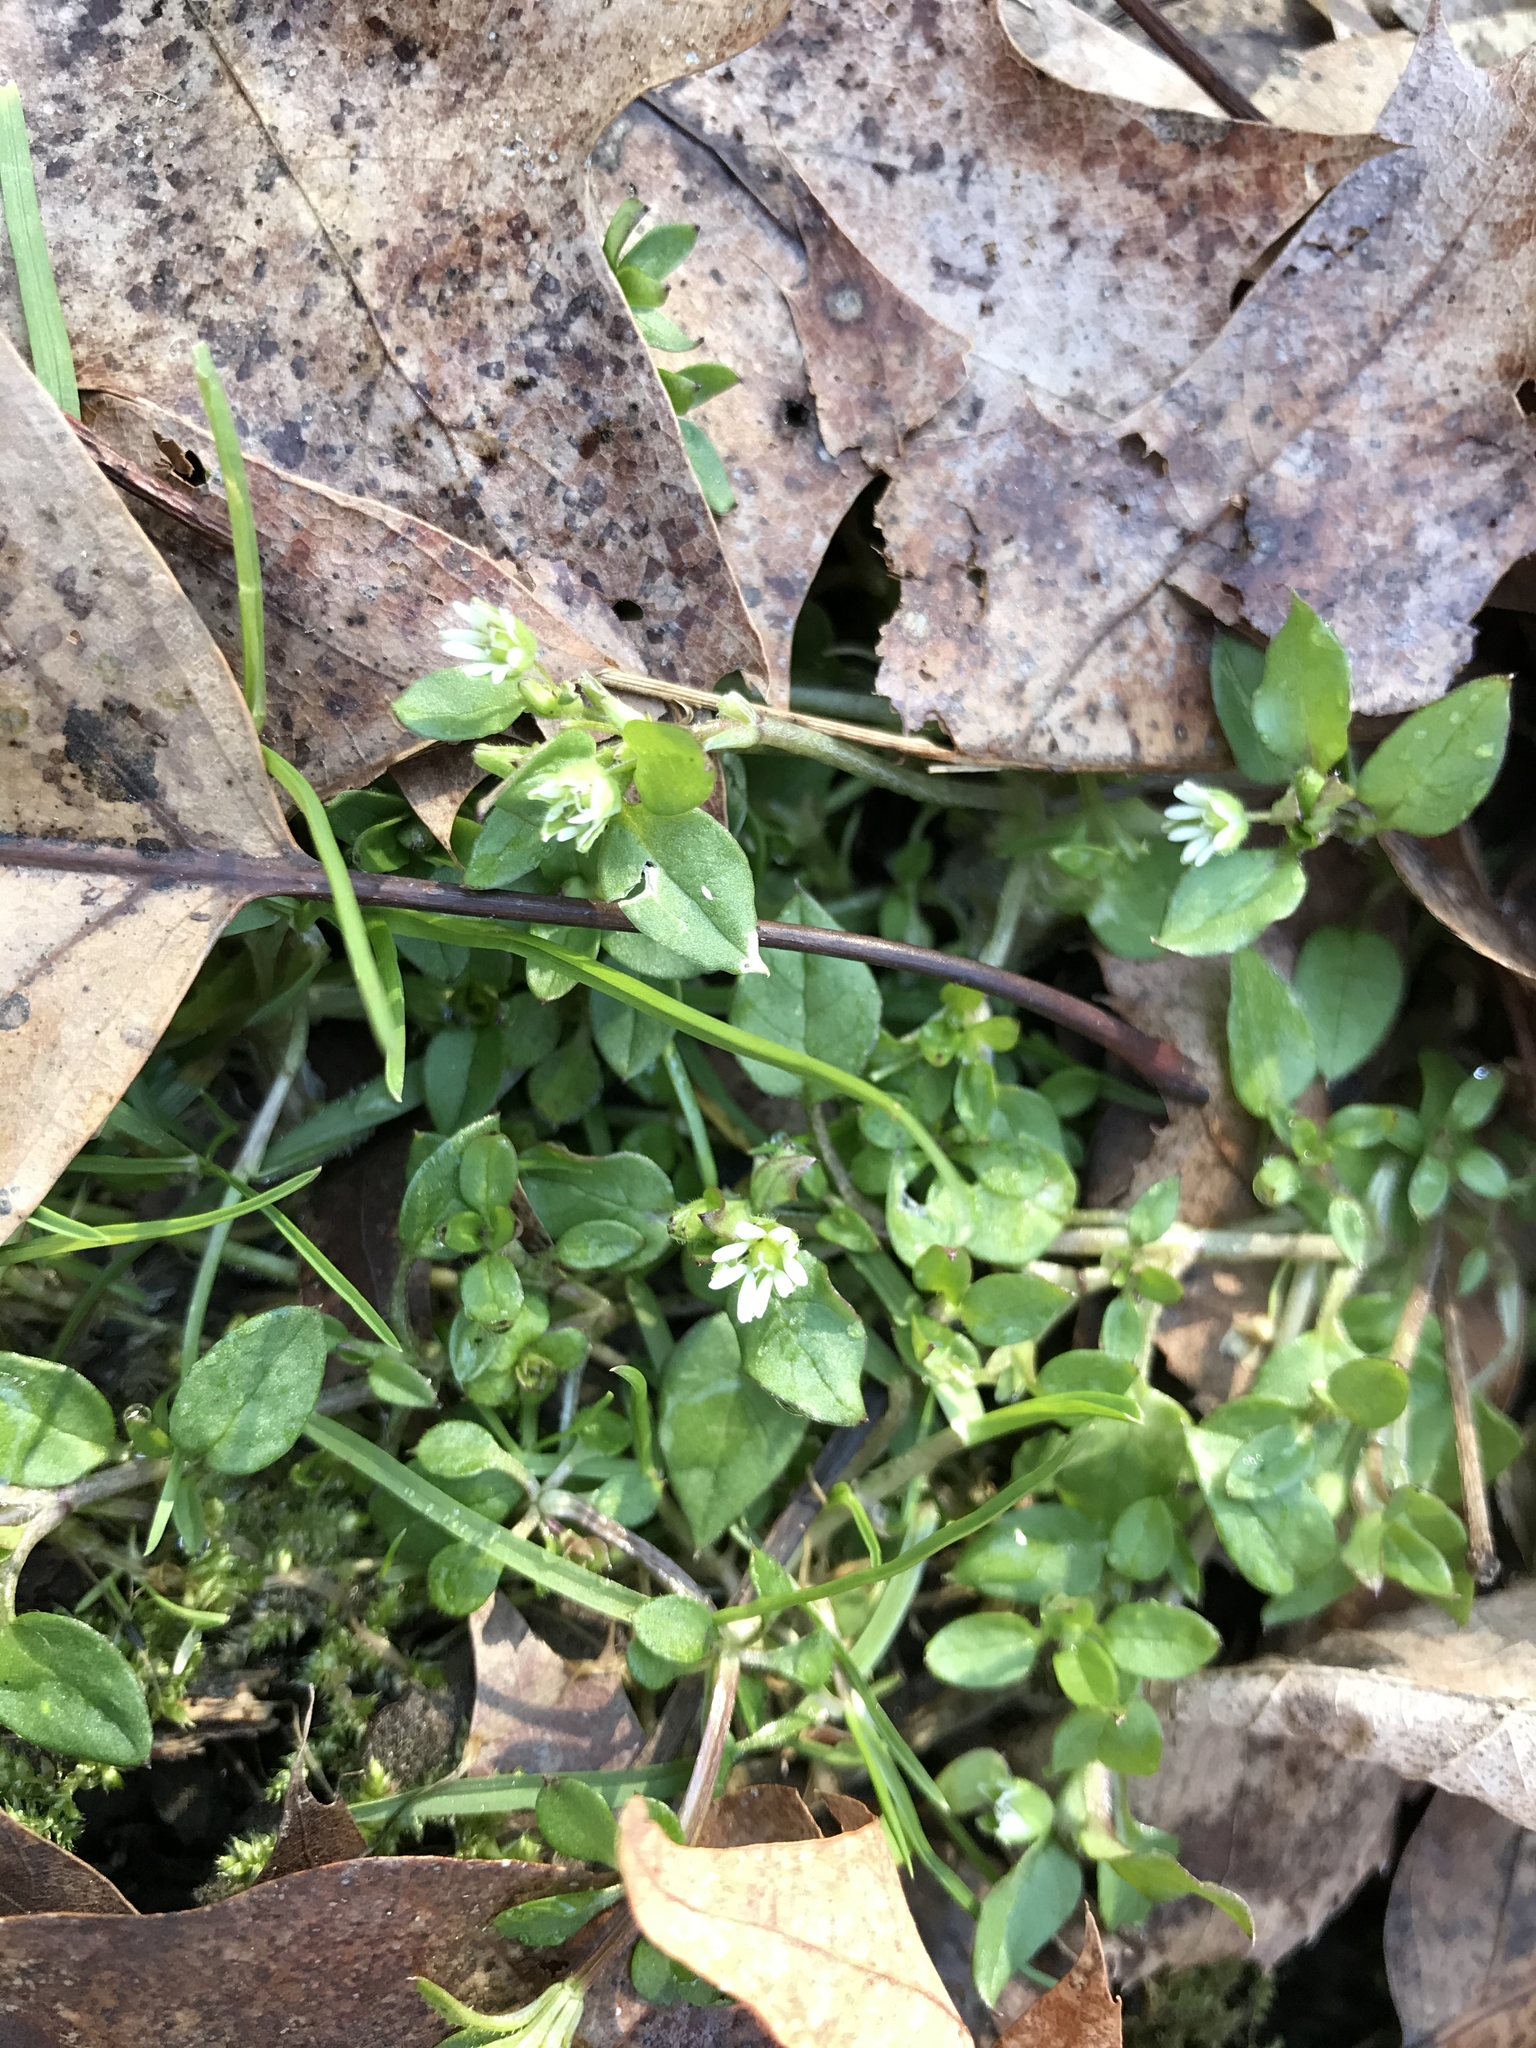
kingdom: Plantae
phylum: Tracheophyta
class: Magnoliopsida
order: Caryophyllales
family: Caryophyllaceae
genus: Stellaria
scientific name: Stellaria media
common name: Common chickweed
